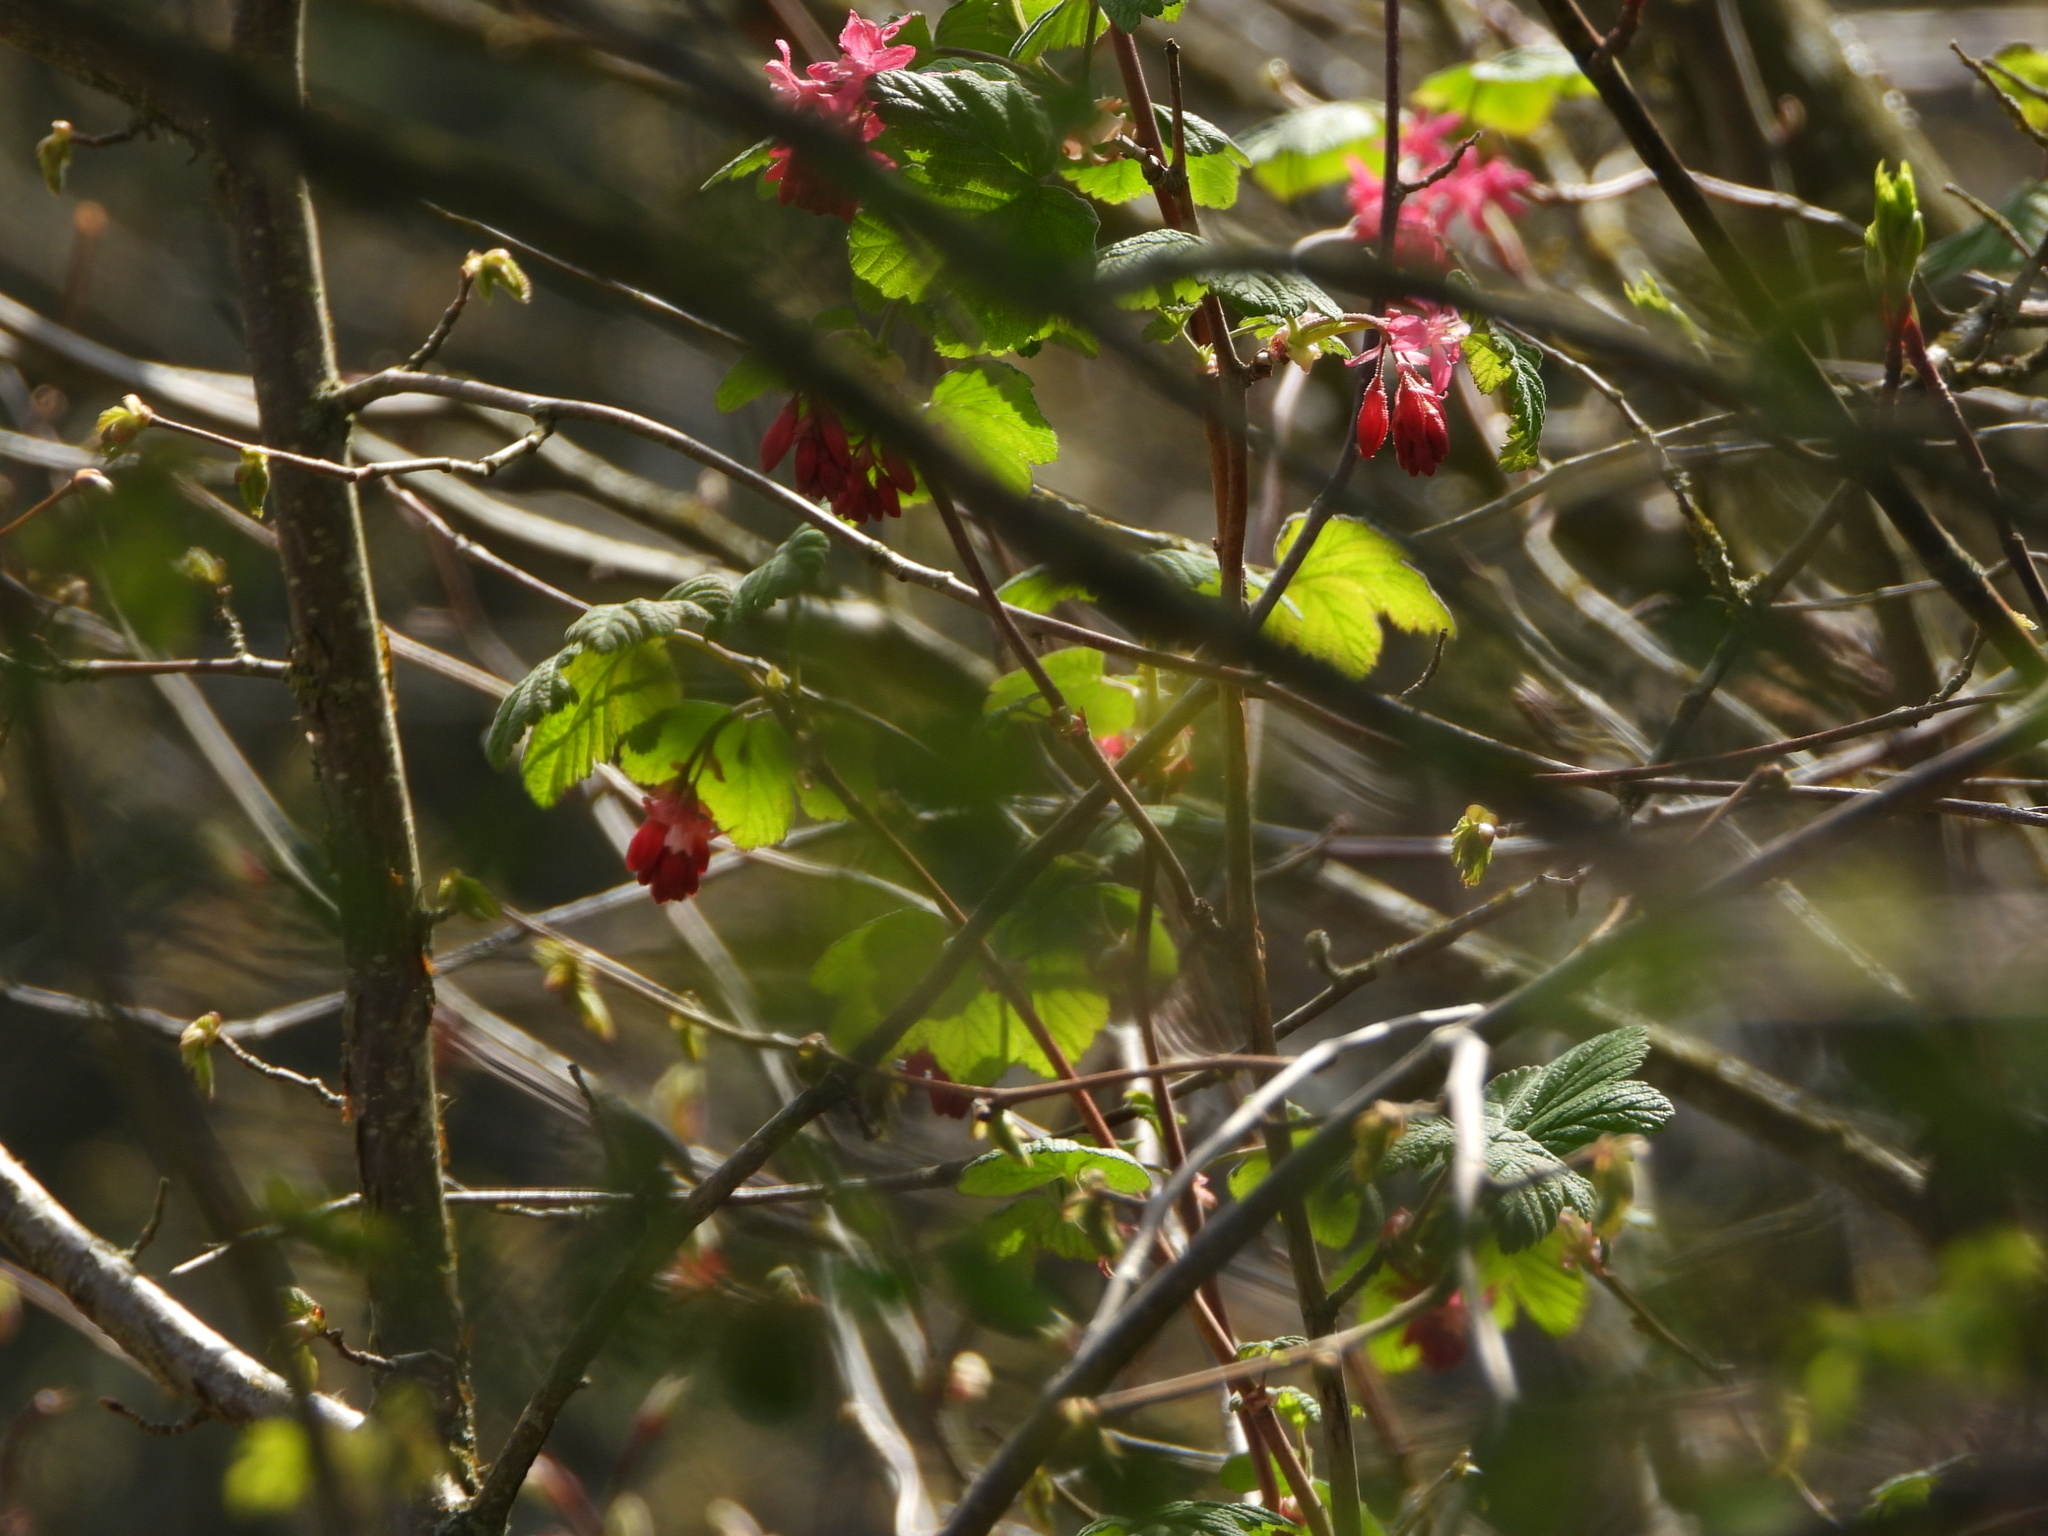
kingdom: Plantae
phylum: Tracheophyta
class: Magnoliopsida
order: Saxifragales
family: Grossulariaceae
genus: Ribes
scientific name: Ribes sanguineum
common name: Flowering currant
